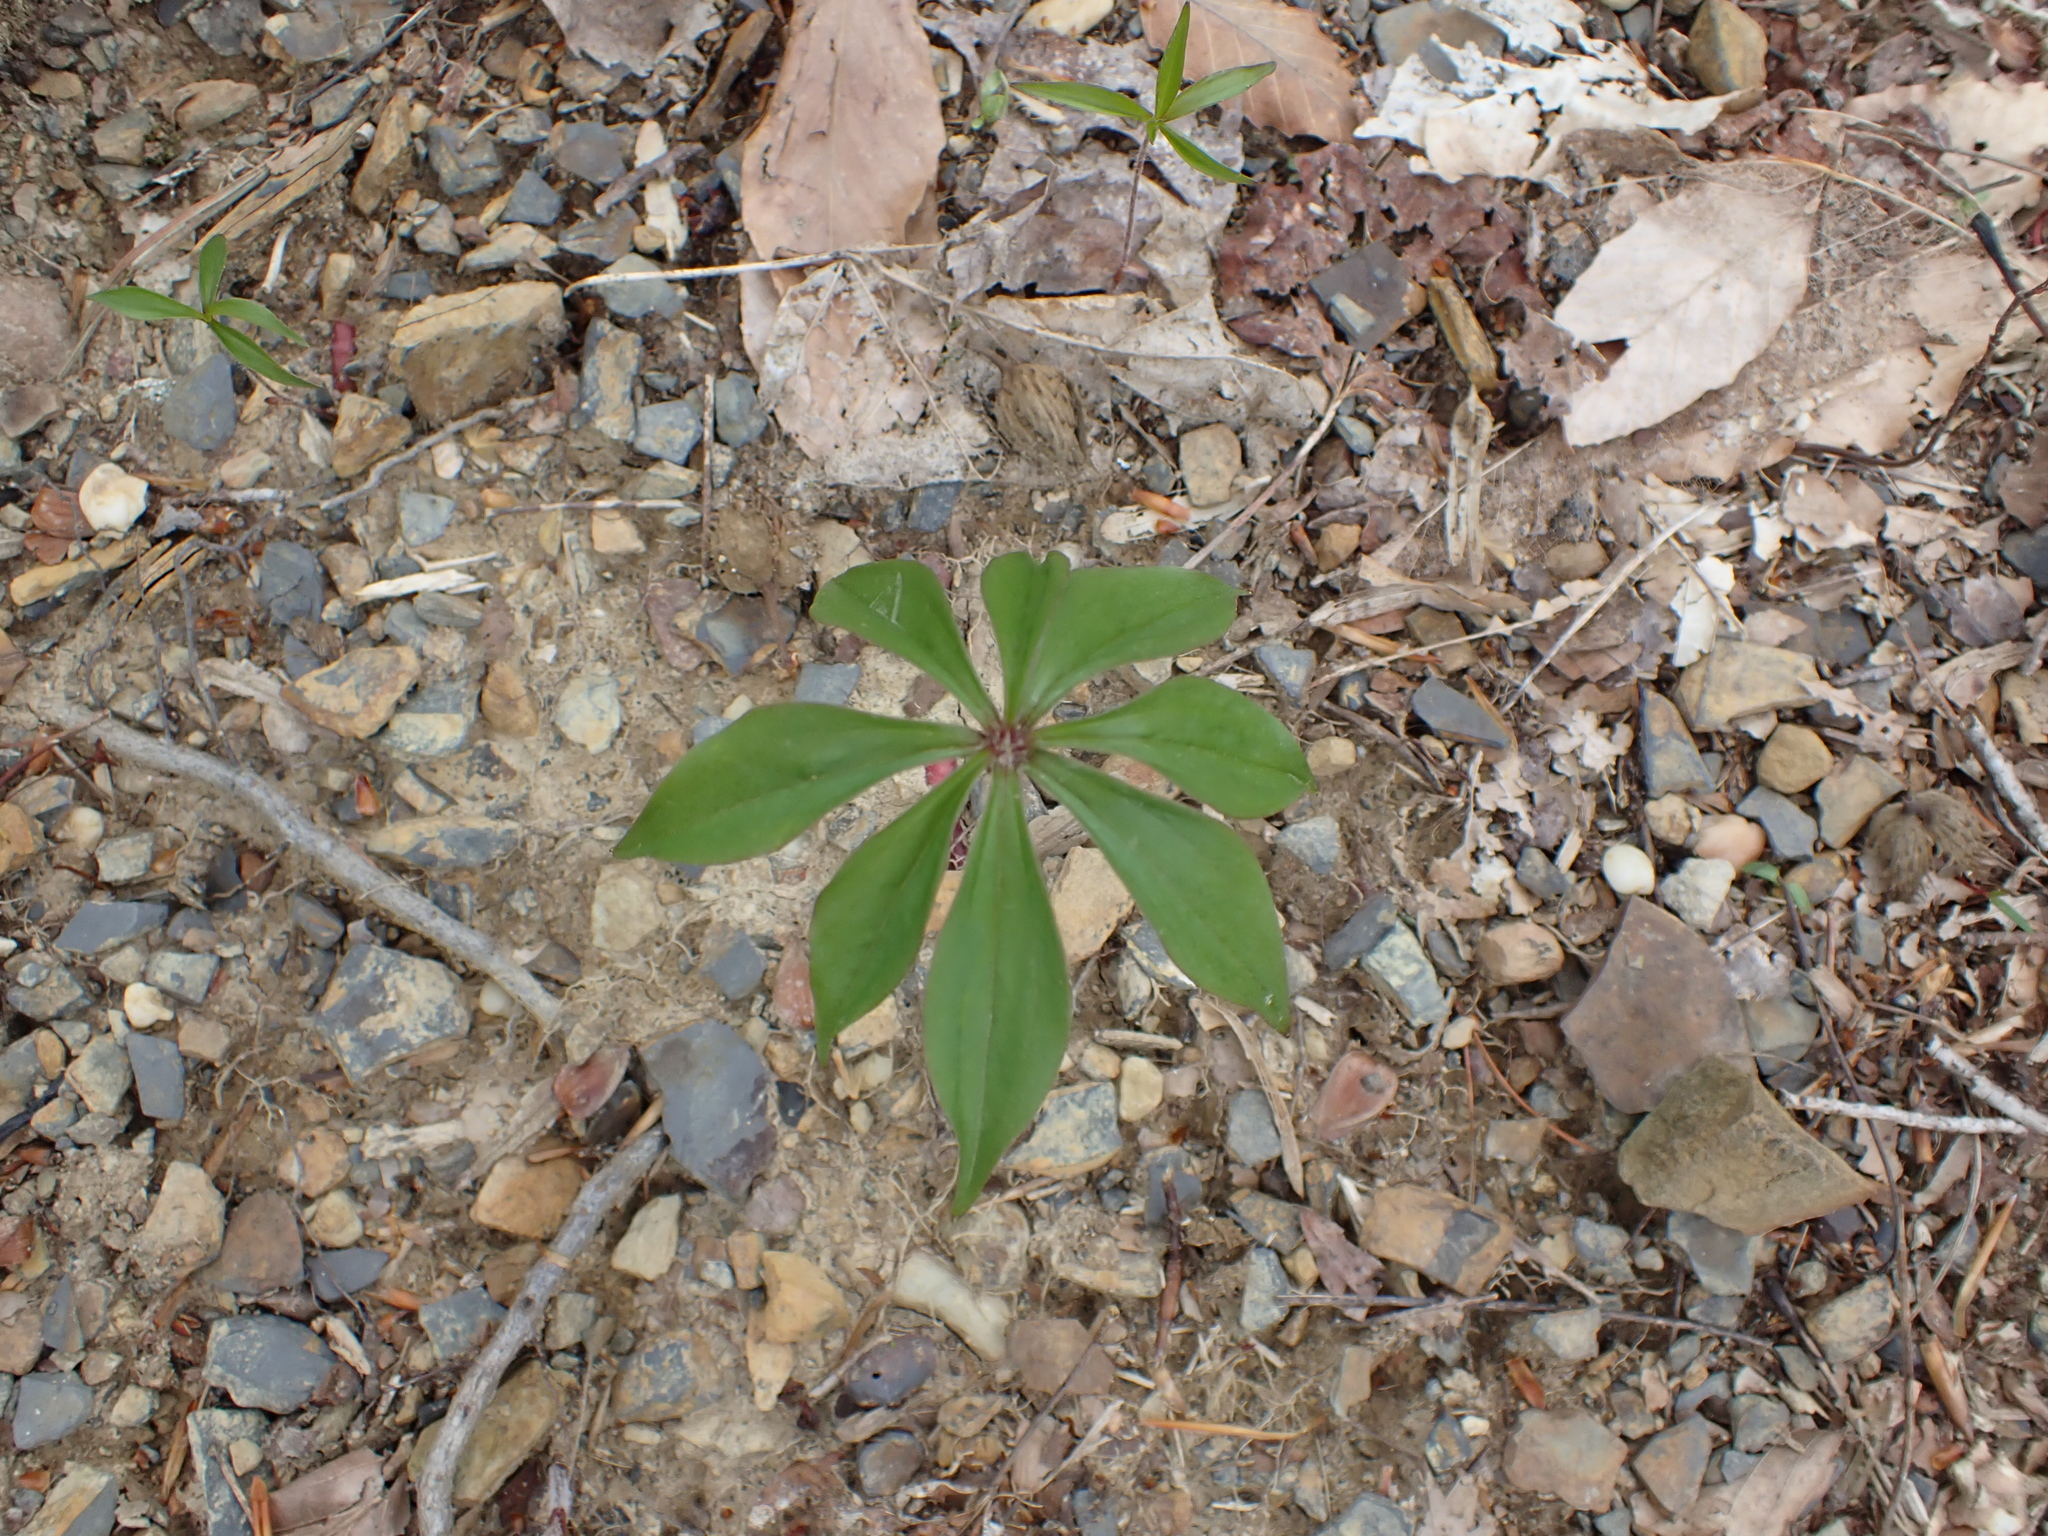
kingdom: Plantae
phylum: Tracheophyta
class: Liliopsida
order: Liliales
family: Liliaceae
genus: Medeola
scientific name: Medeola virginiana
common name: Indian cucumber-root
